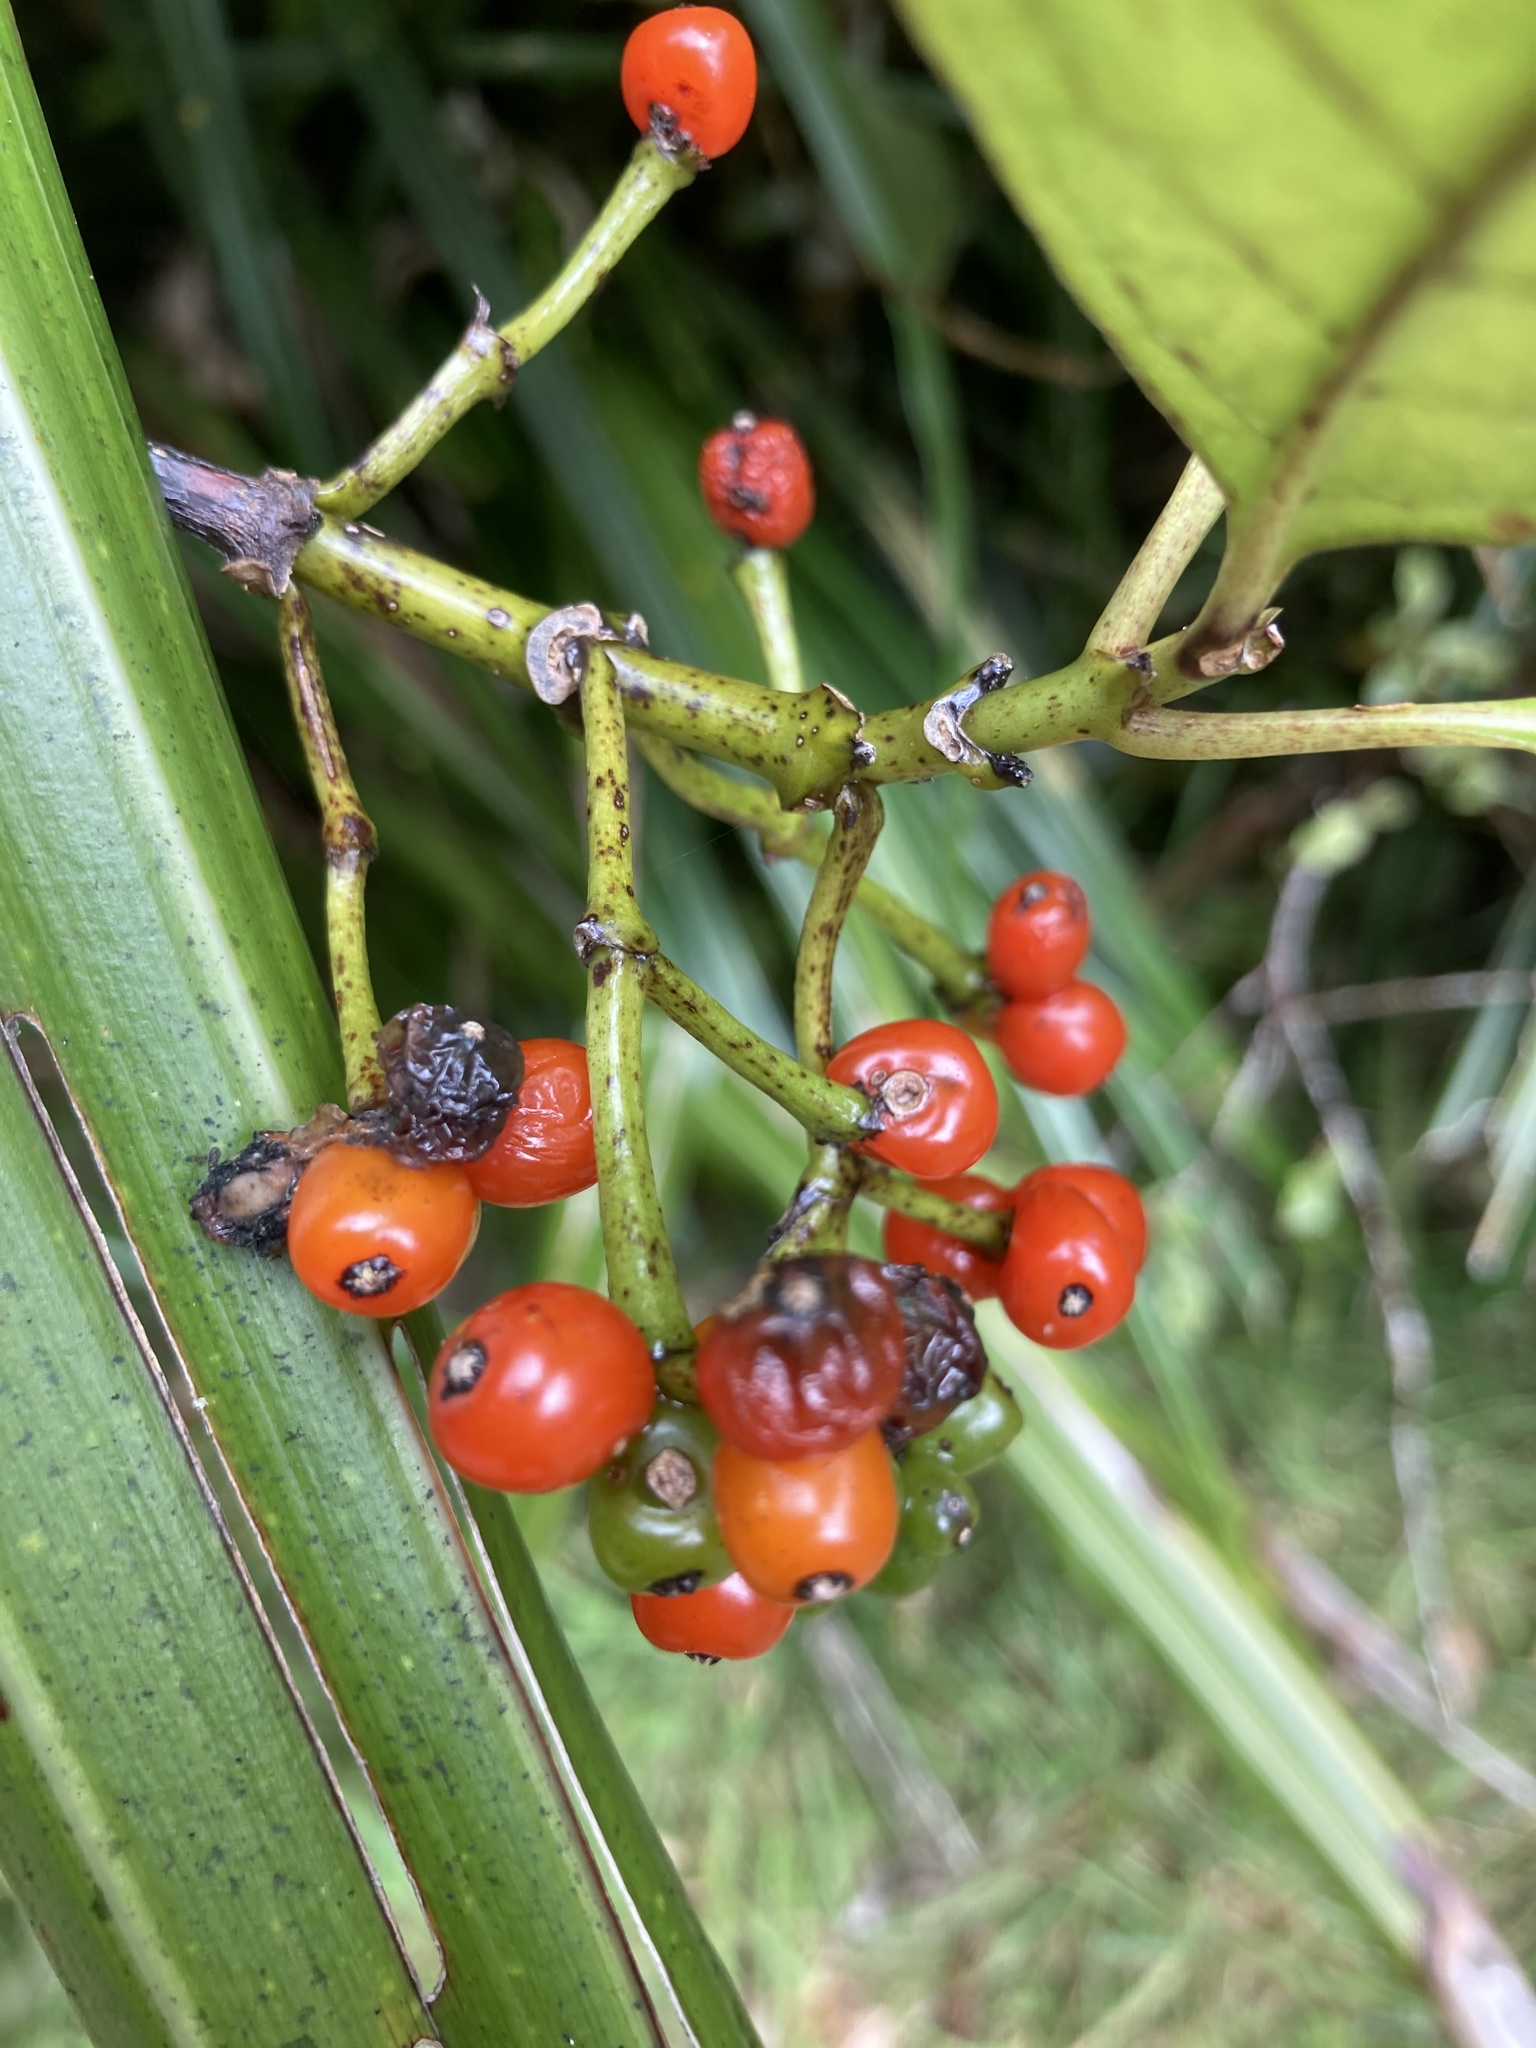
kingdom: Plantae
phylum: Tracheophyta
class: Magnoliopsida
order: Gentianales
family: Rubiaceae
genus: Coprosma
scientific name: Coprosma autumnalis
